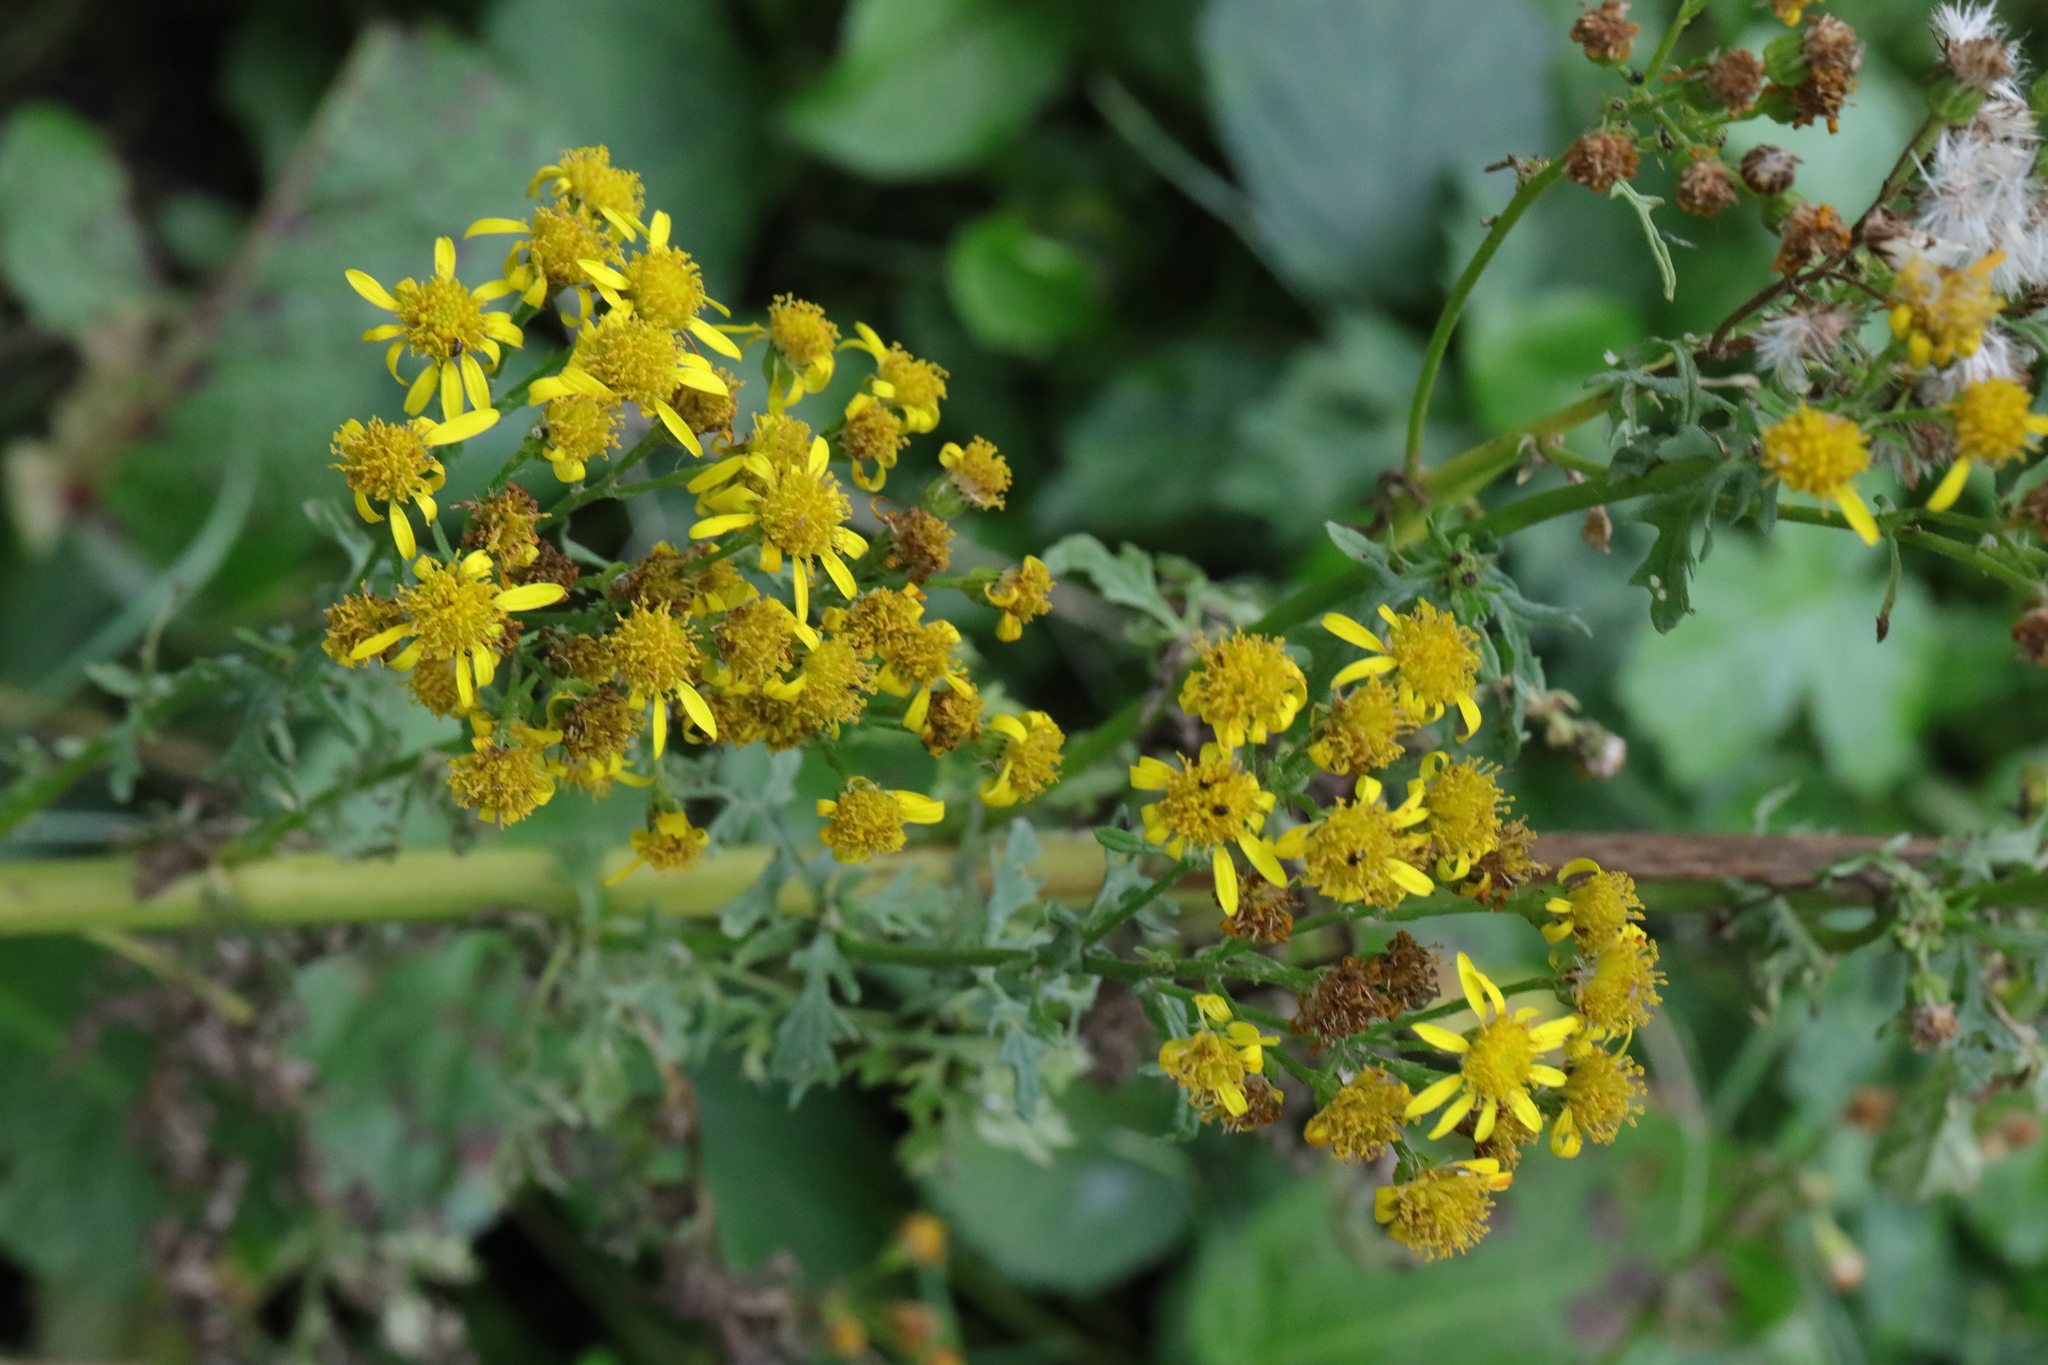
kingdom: Plantae
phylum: Tracheophyta
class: Magnoliopsida
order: Asterales
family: Asteraceae
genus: Jacobaea
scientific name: Jacobaea vulgaris
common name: Stinking willie
